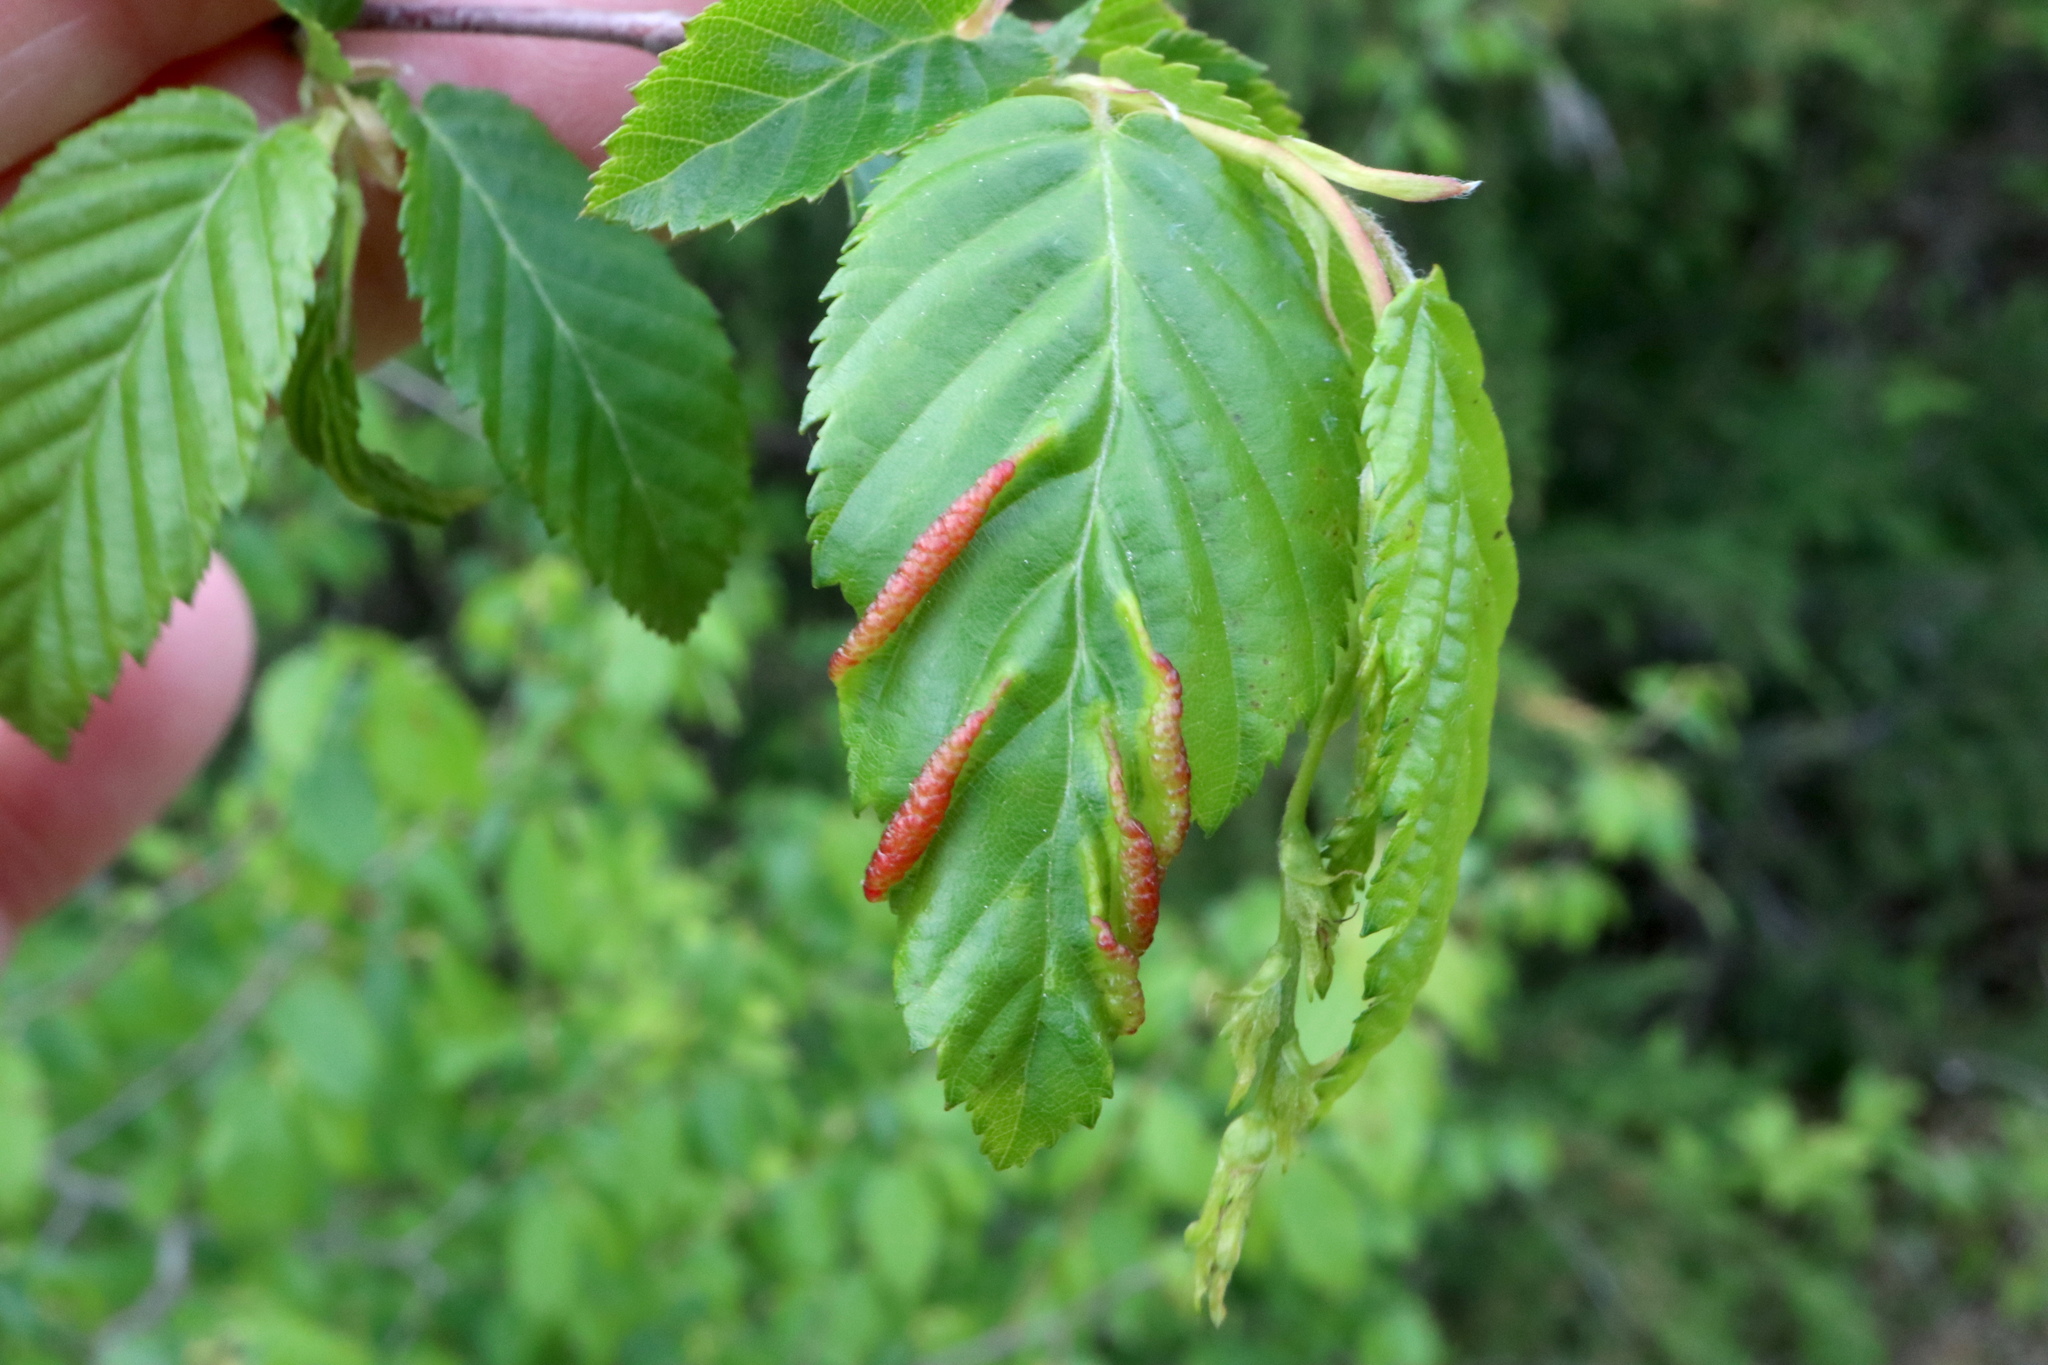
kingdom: Animalia
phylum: Arthropoda
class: Insecta
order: Diptera
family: Cecidomyiidae
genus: Dasineura
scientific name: Dasineura pudibunda
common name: Hornbeam leaf gall midge
